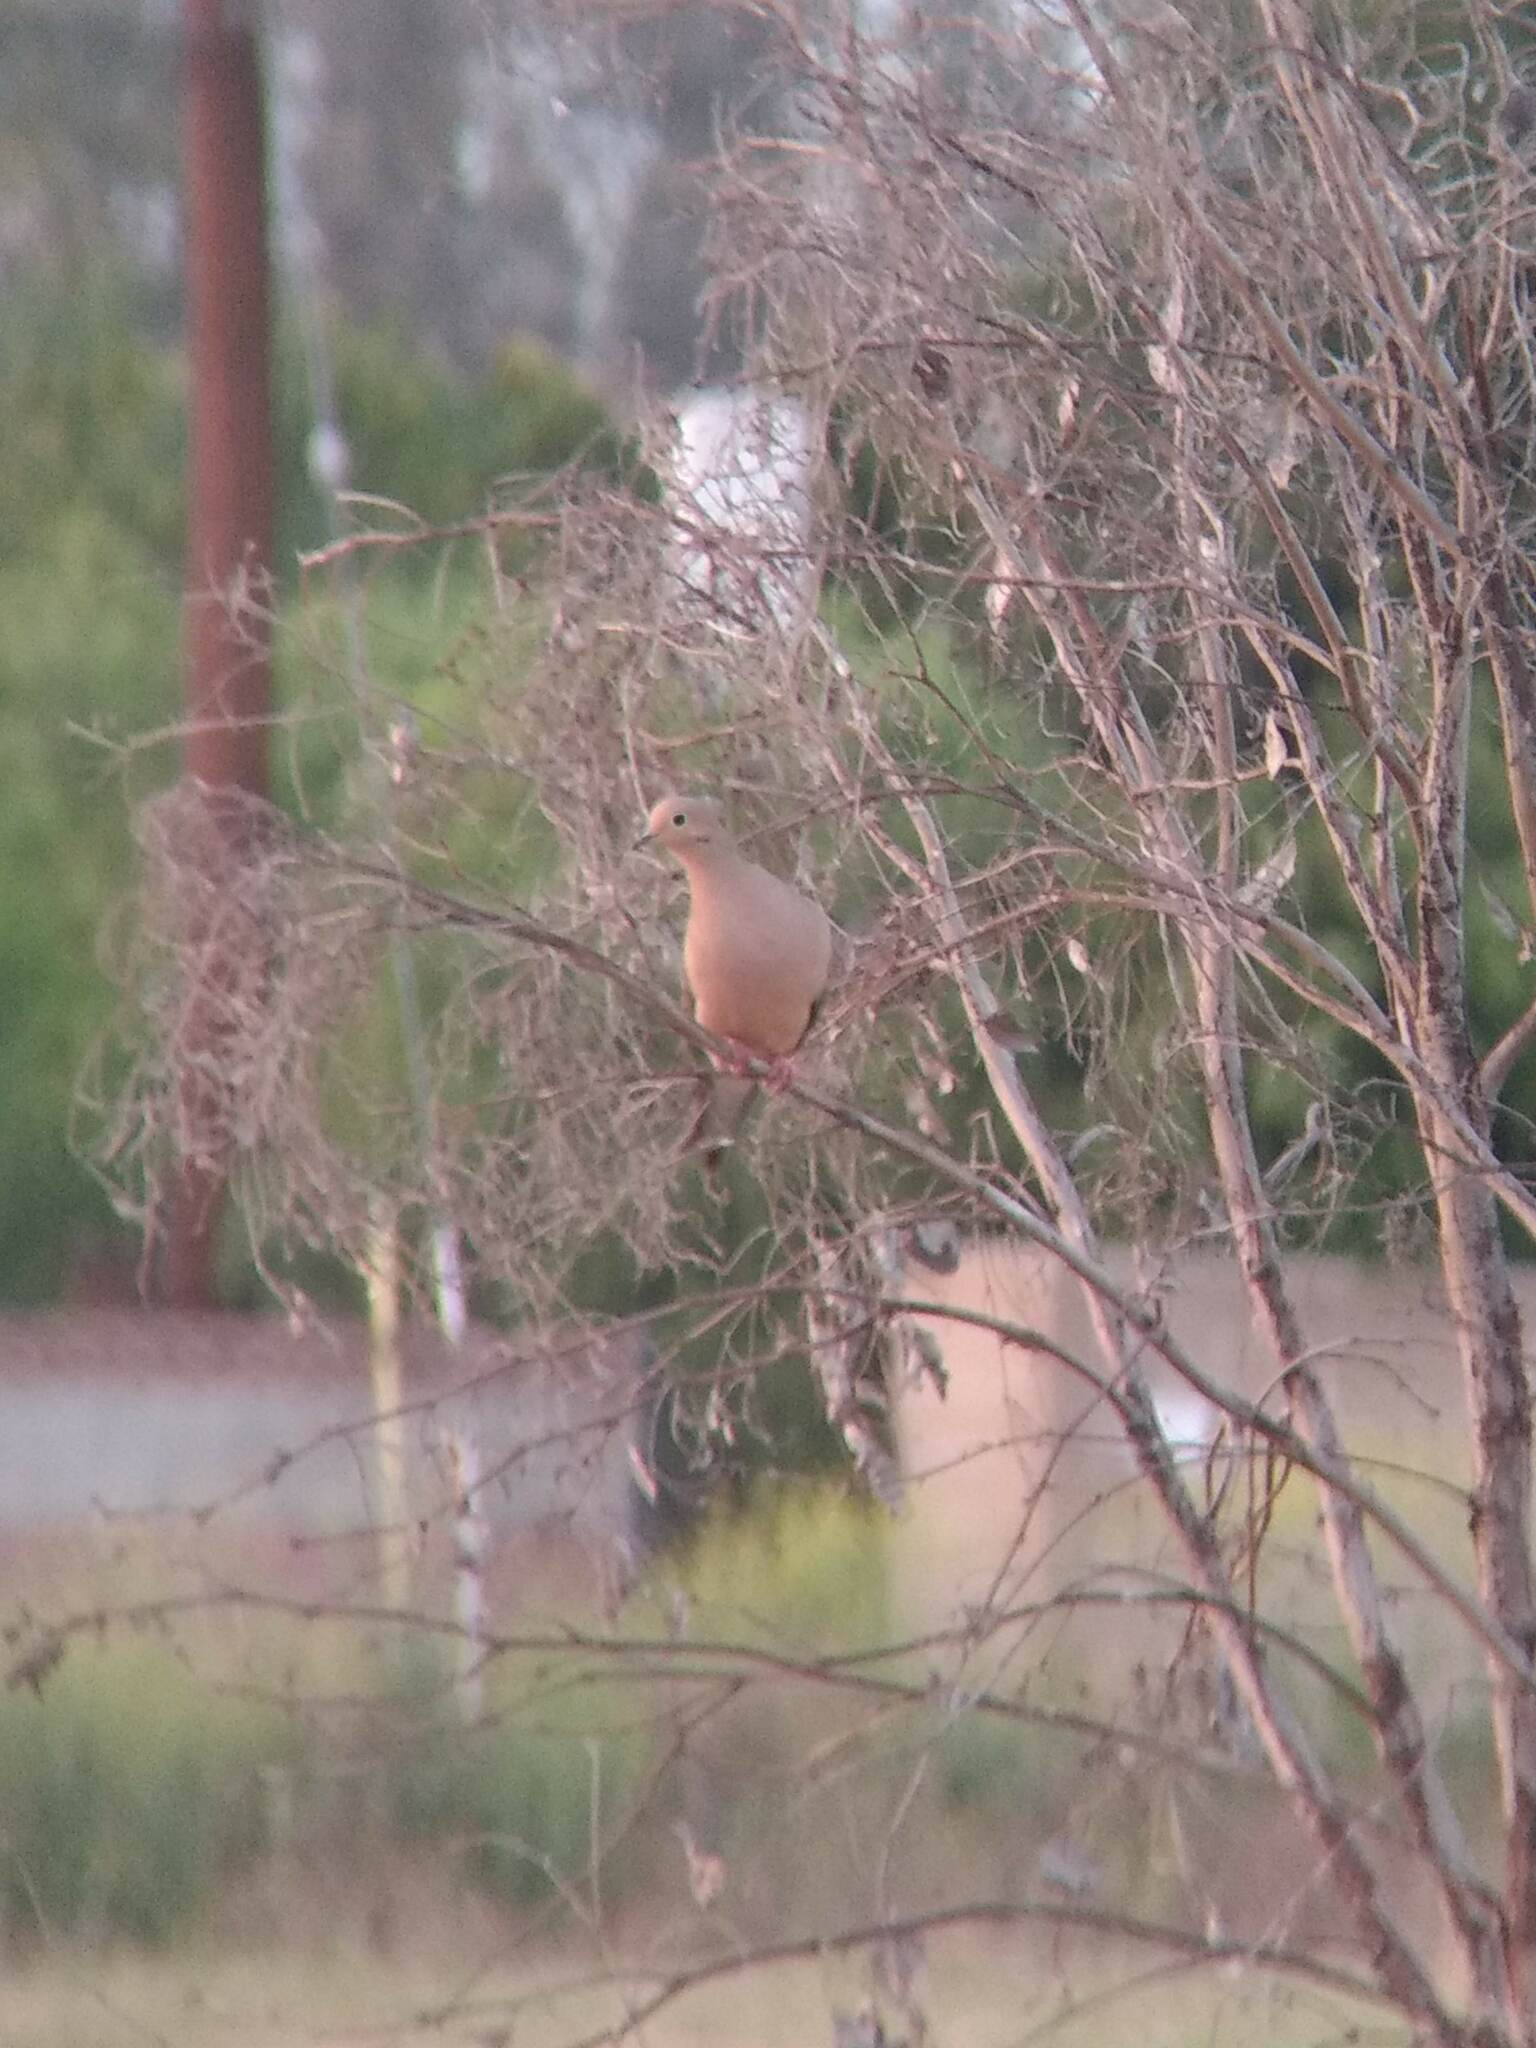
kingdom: Animalia
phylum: Chordata
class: Aves
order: Columbiformes
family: Columbidae
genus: Zenaida
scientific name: Zenaida macroura
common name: Mourning dove
